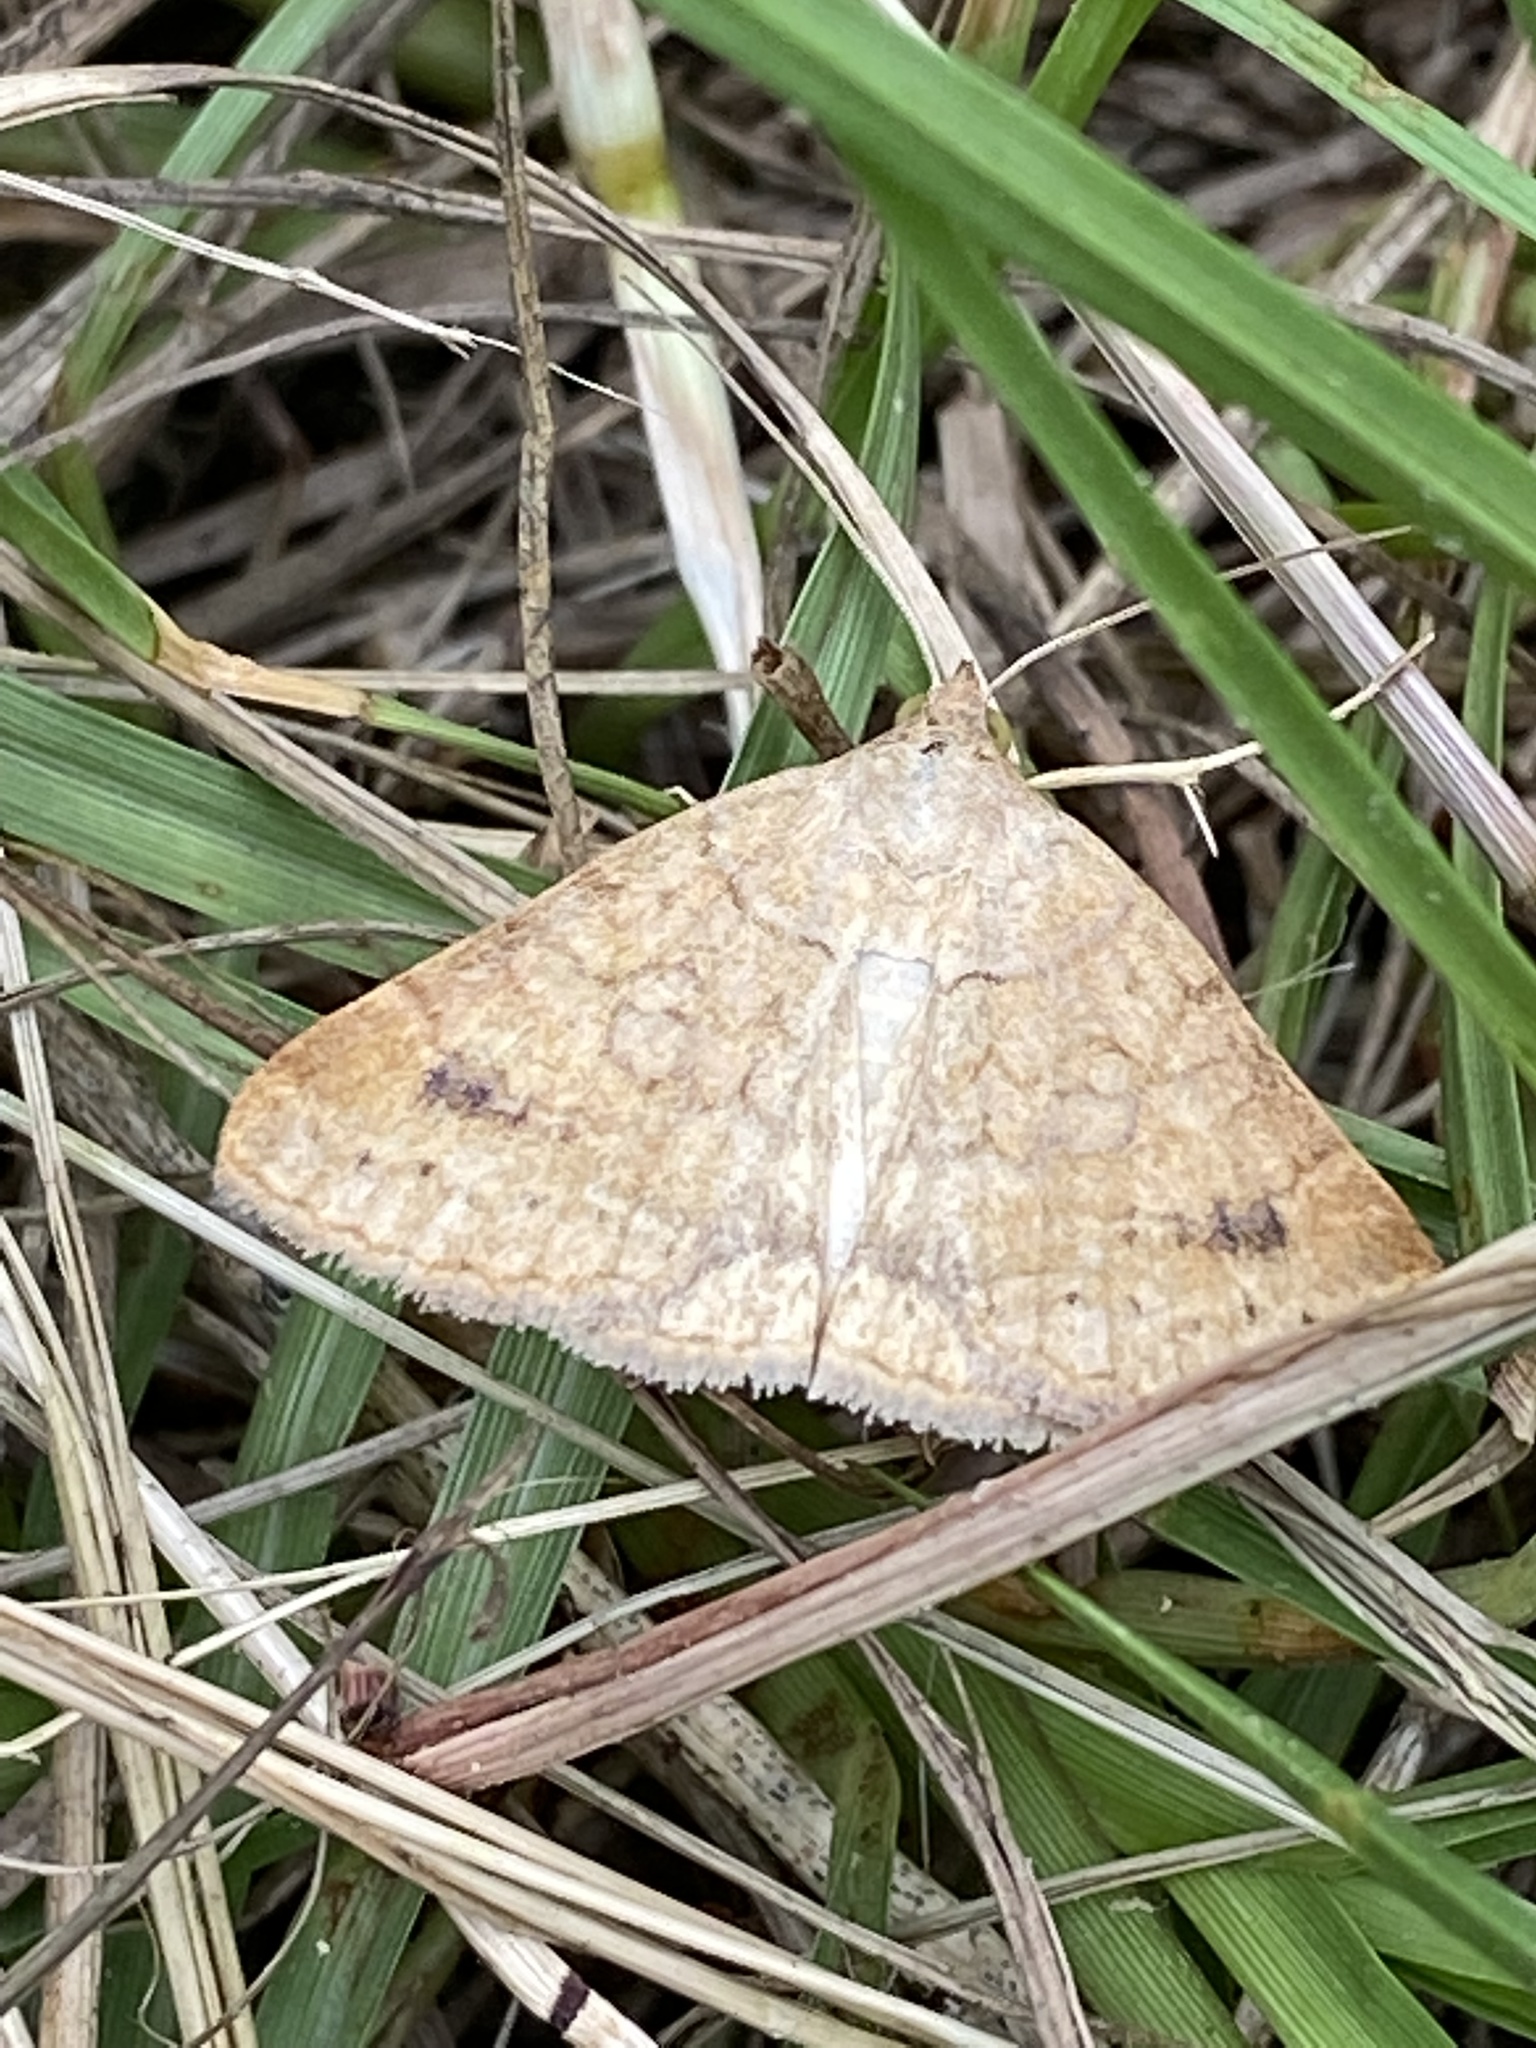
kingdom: Animalia
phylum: Arthropoda
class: Insecta
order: Lepidoptera
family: Erebidae
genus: Caenurgia
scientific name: Caenurgia chloropha
